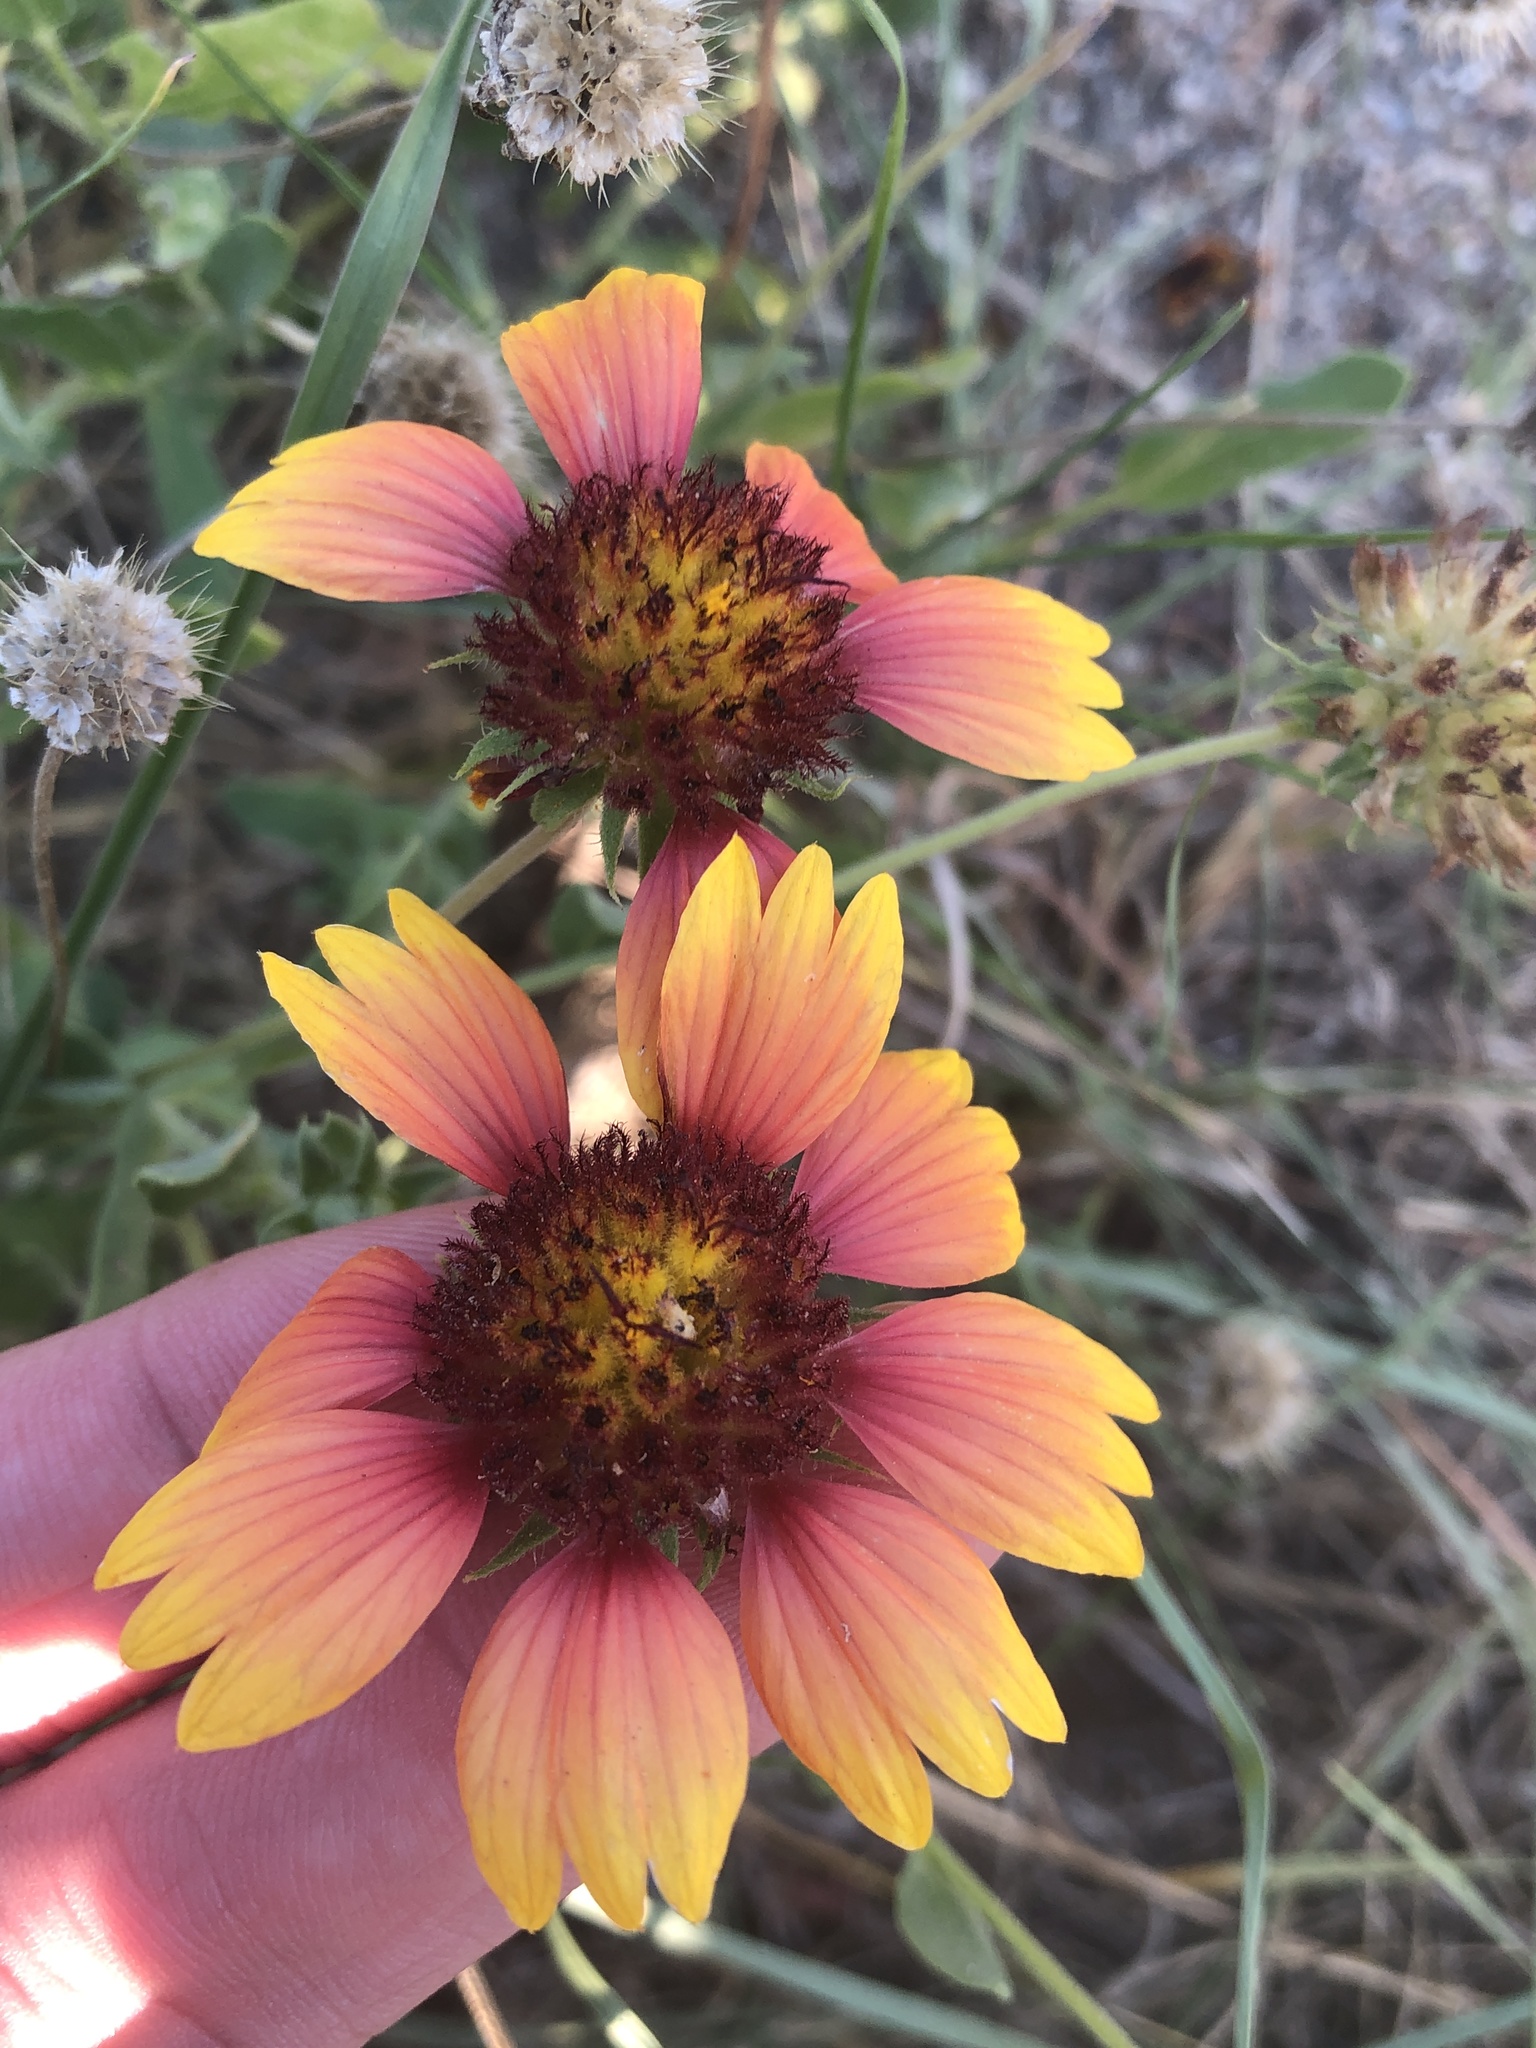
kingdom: Plantae
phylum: Tracheophyta
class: Magnoliopsida
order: Asterales
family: Asteraceae
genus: Gaillardia
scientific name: Gaillardia pulchella
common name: Firewheel
